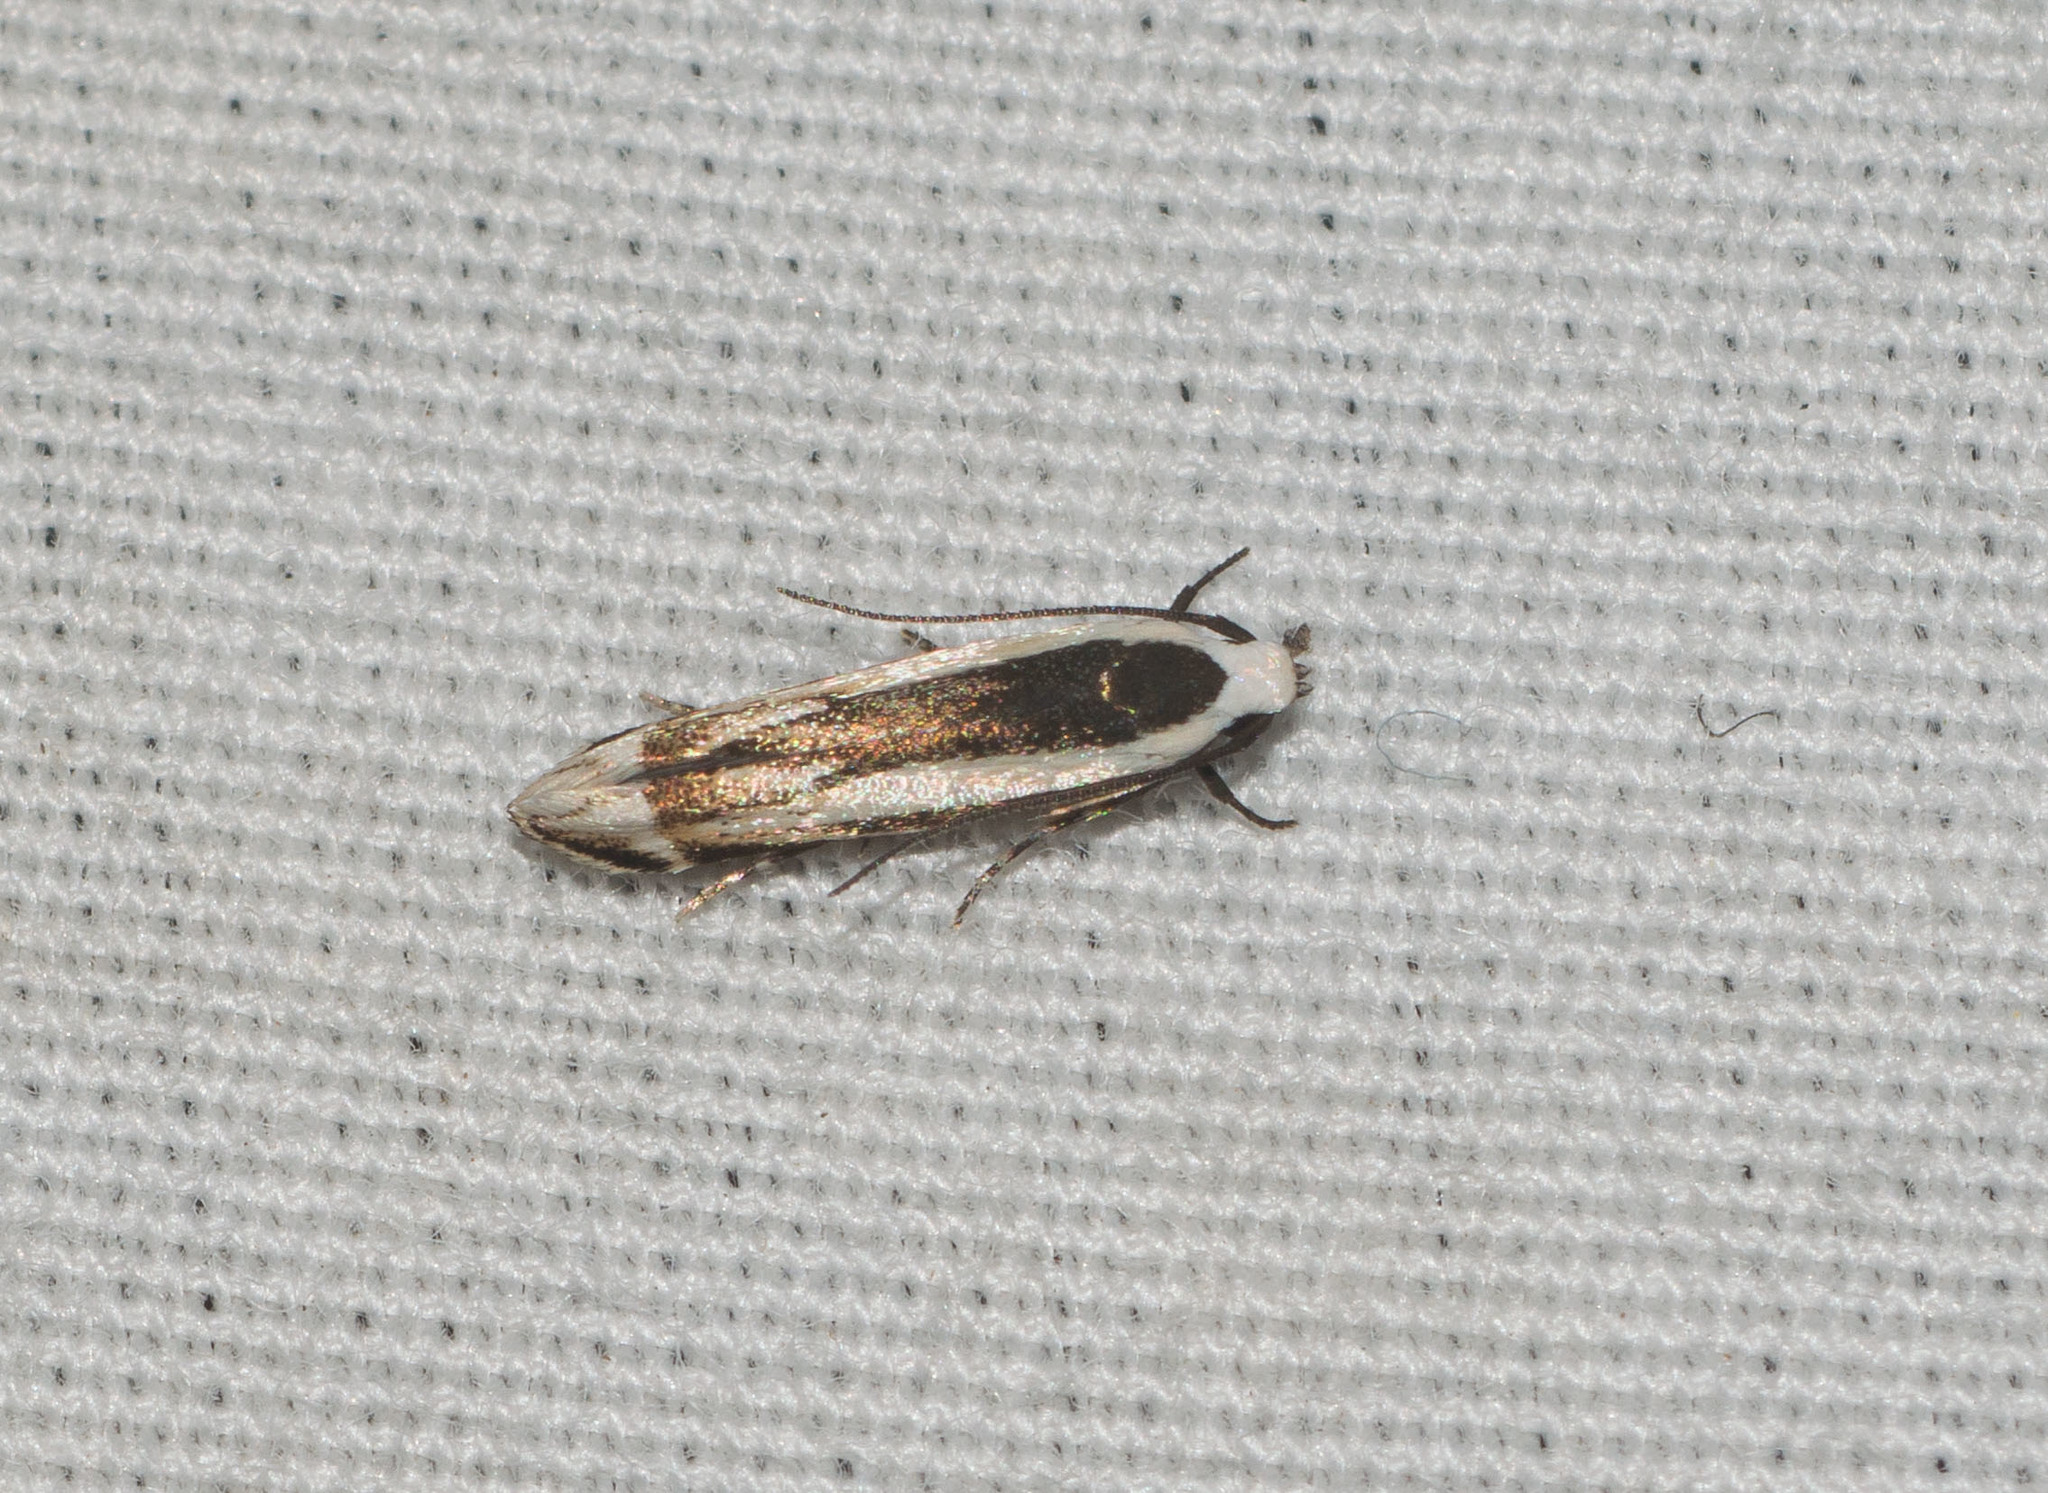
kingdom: Animalia
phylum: Arthropoda
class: Insecta
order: Lepidoptera
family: Cosmopterigidae
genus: Neelysia
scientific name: Neelysia alveata
